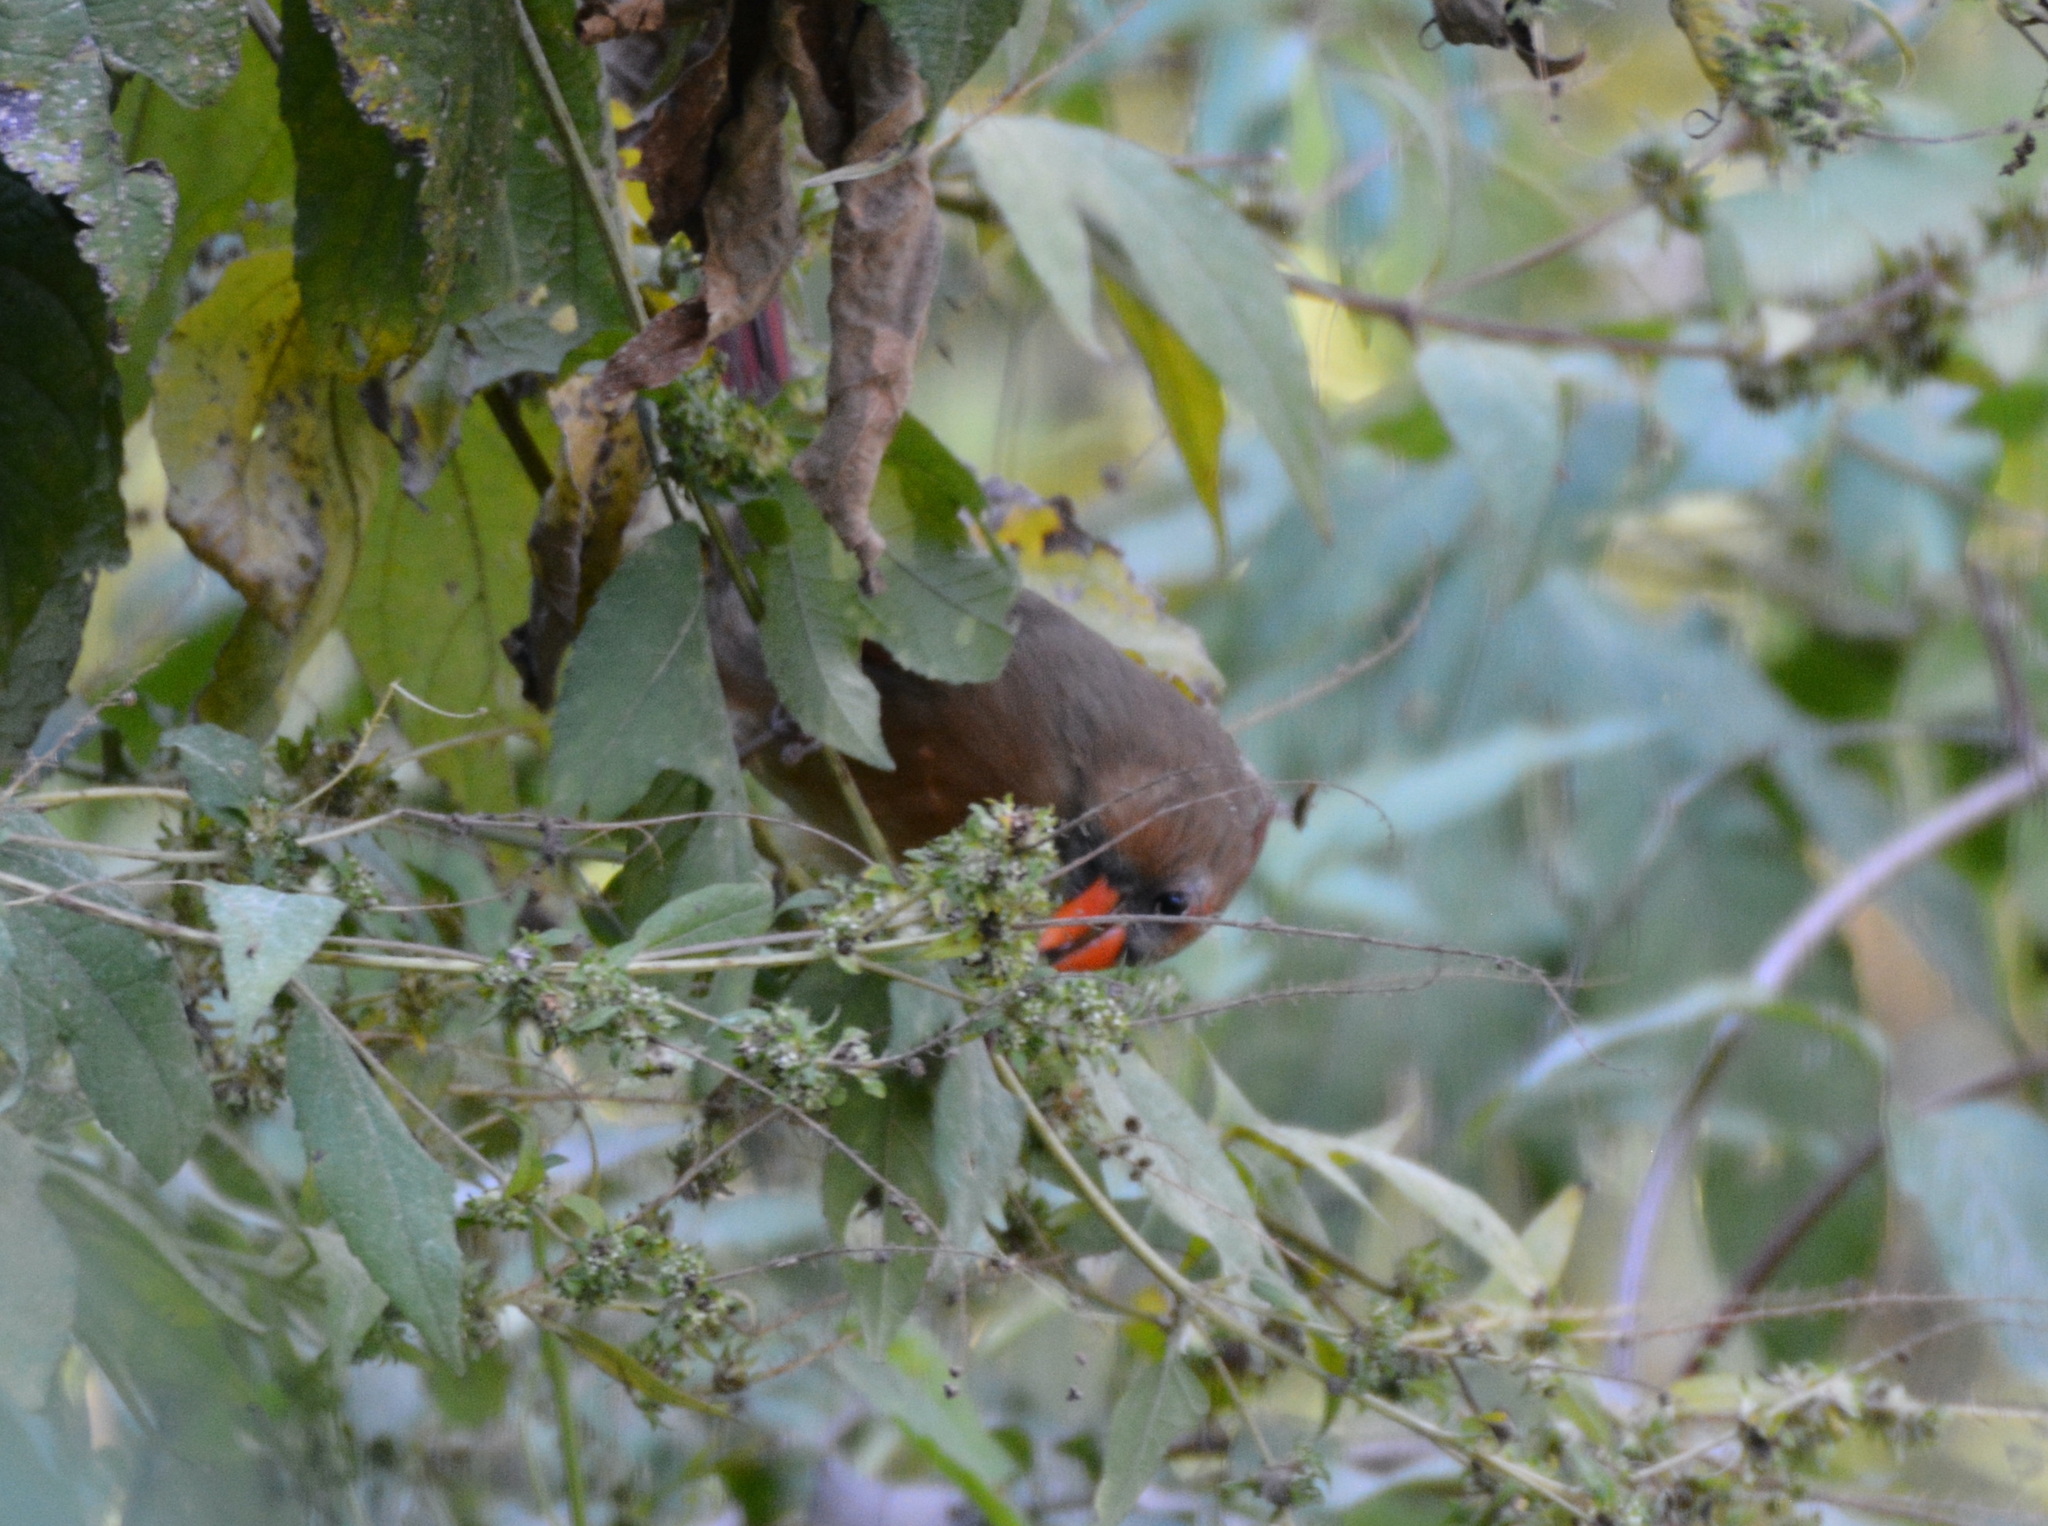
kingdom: Animalia
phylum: Chordata
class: Aves
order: Passeriformes
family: Cardinalidae
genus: Cardinalis
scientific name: Cardinalis cardinalis
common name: Northern cardinal
